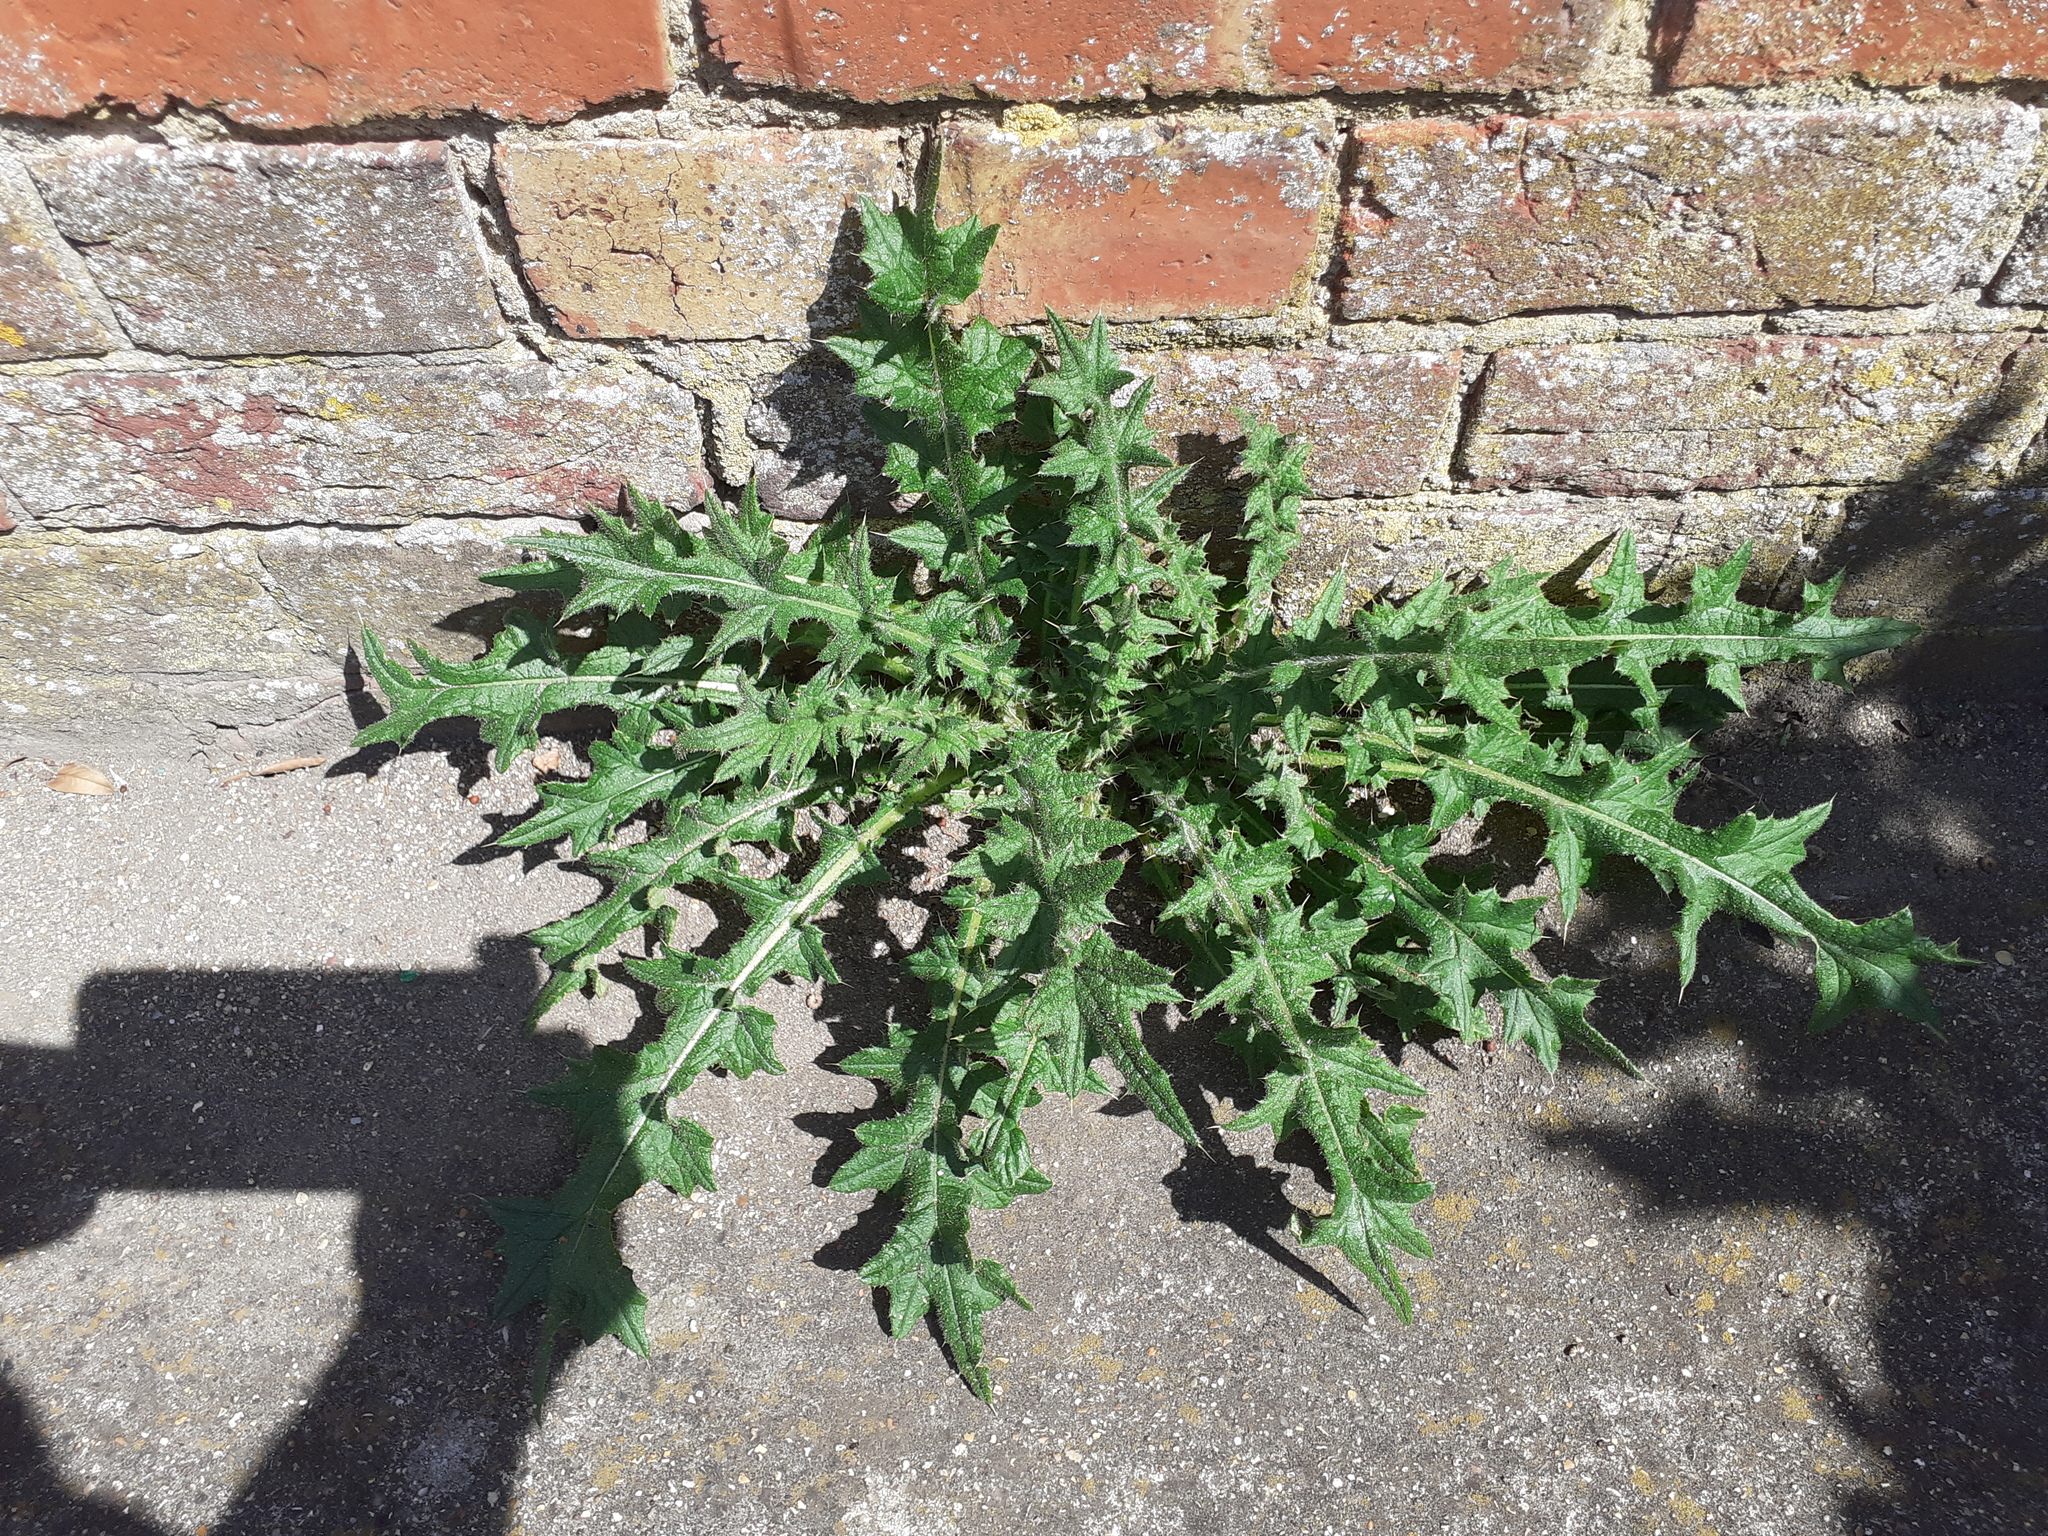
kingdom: Plantae
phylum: Tracheophyta
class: Magnoliopsida
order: Asterales
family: Asteraceae
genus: Cirsium
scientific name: Cirsium vulgare
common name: Bull thistle
